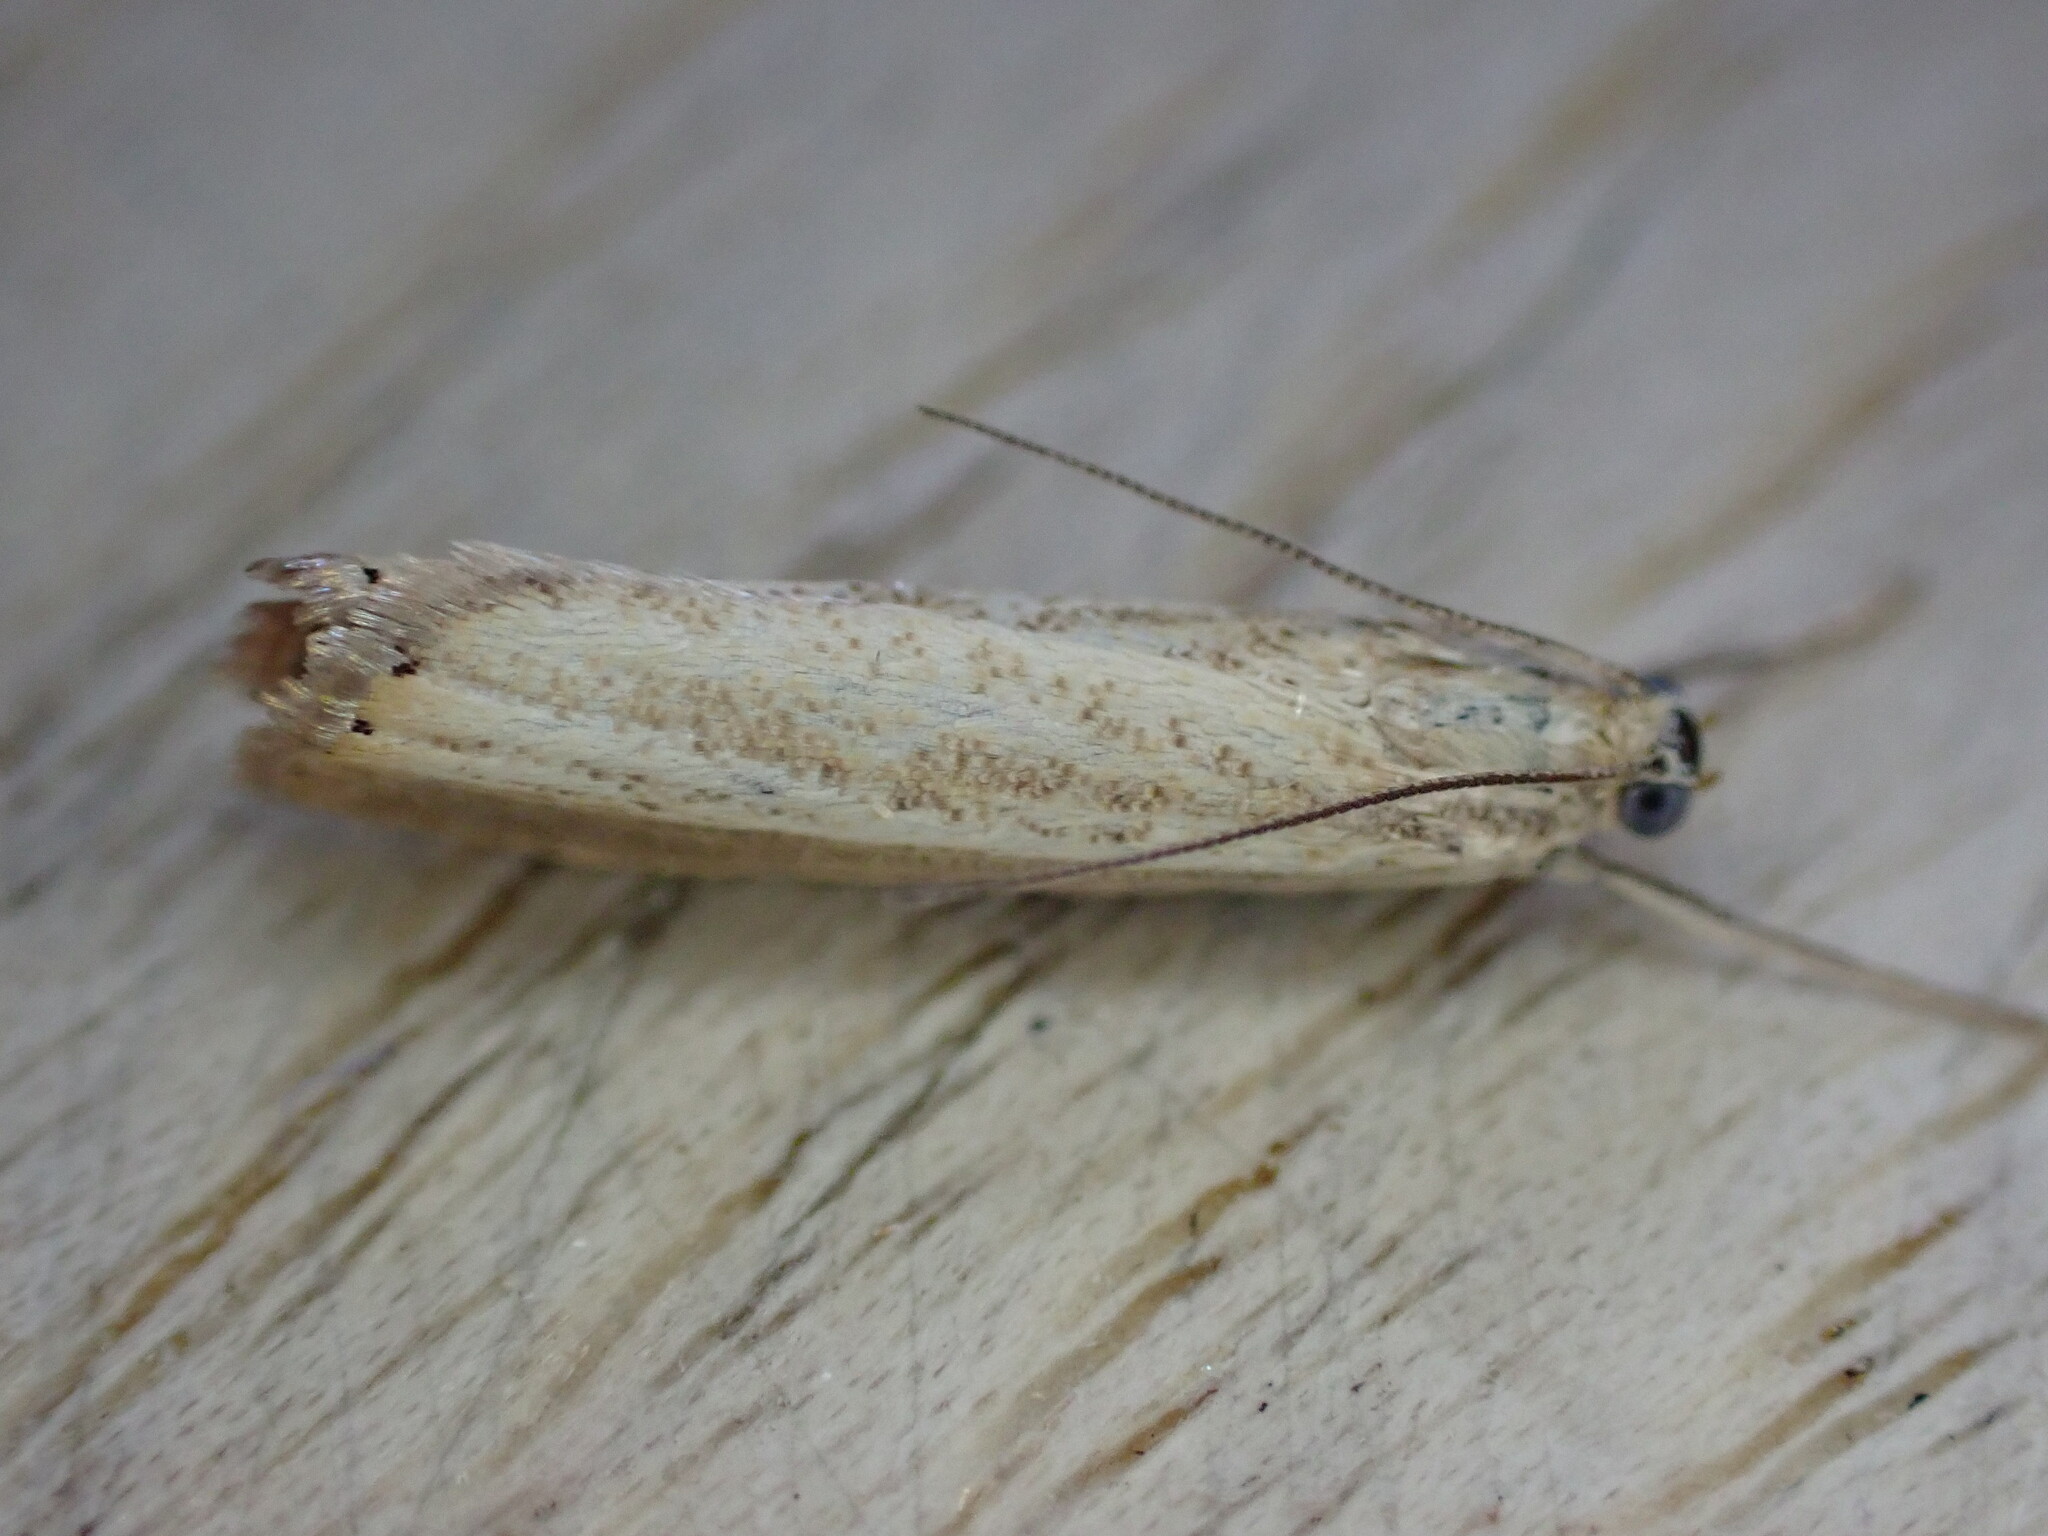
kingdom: Animalia
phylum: Arthropoda
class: Insecta
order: Lepidoptera
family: Crambidae
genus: Agriphila
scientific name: Agriphila straminella
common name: Straw grass-veneer
